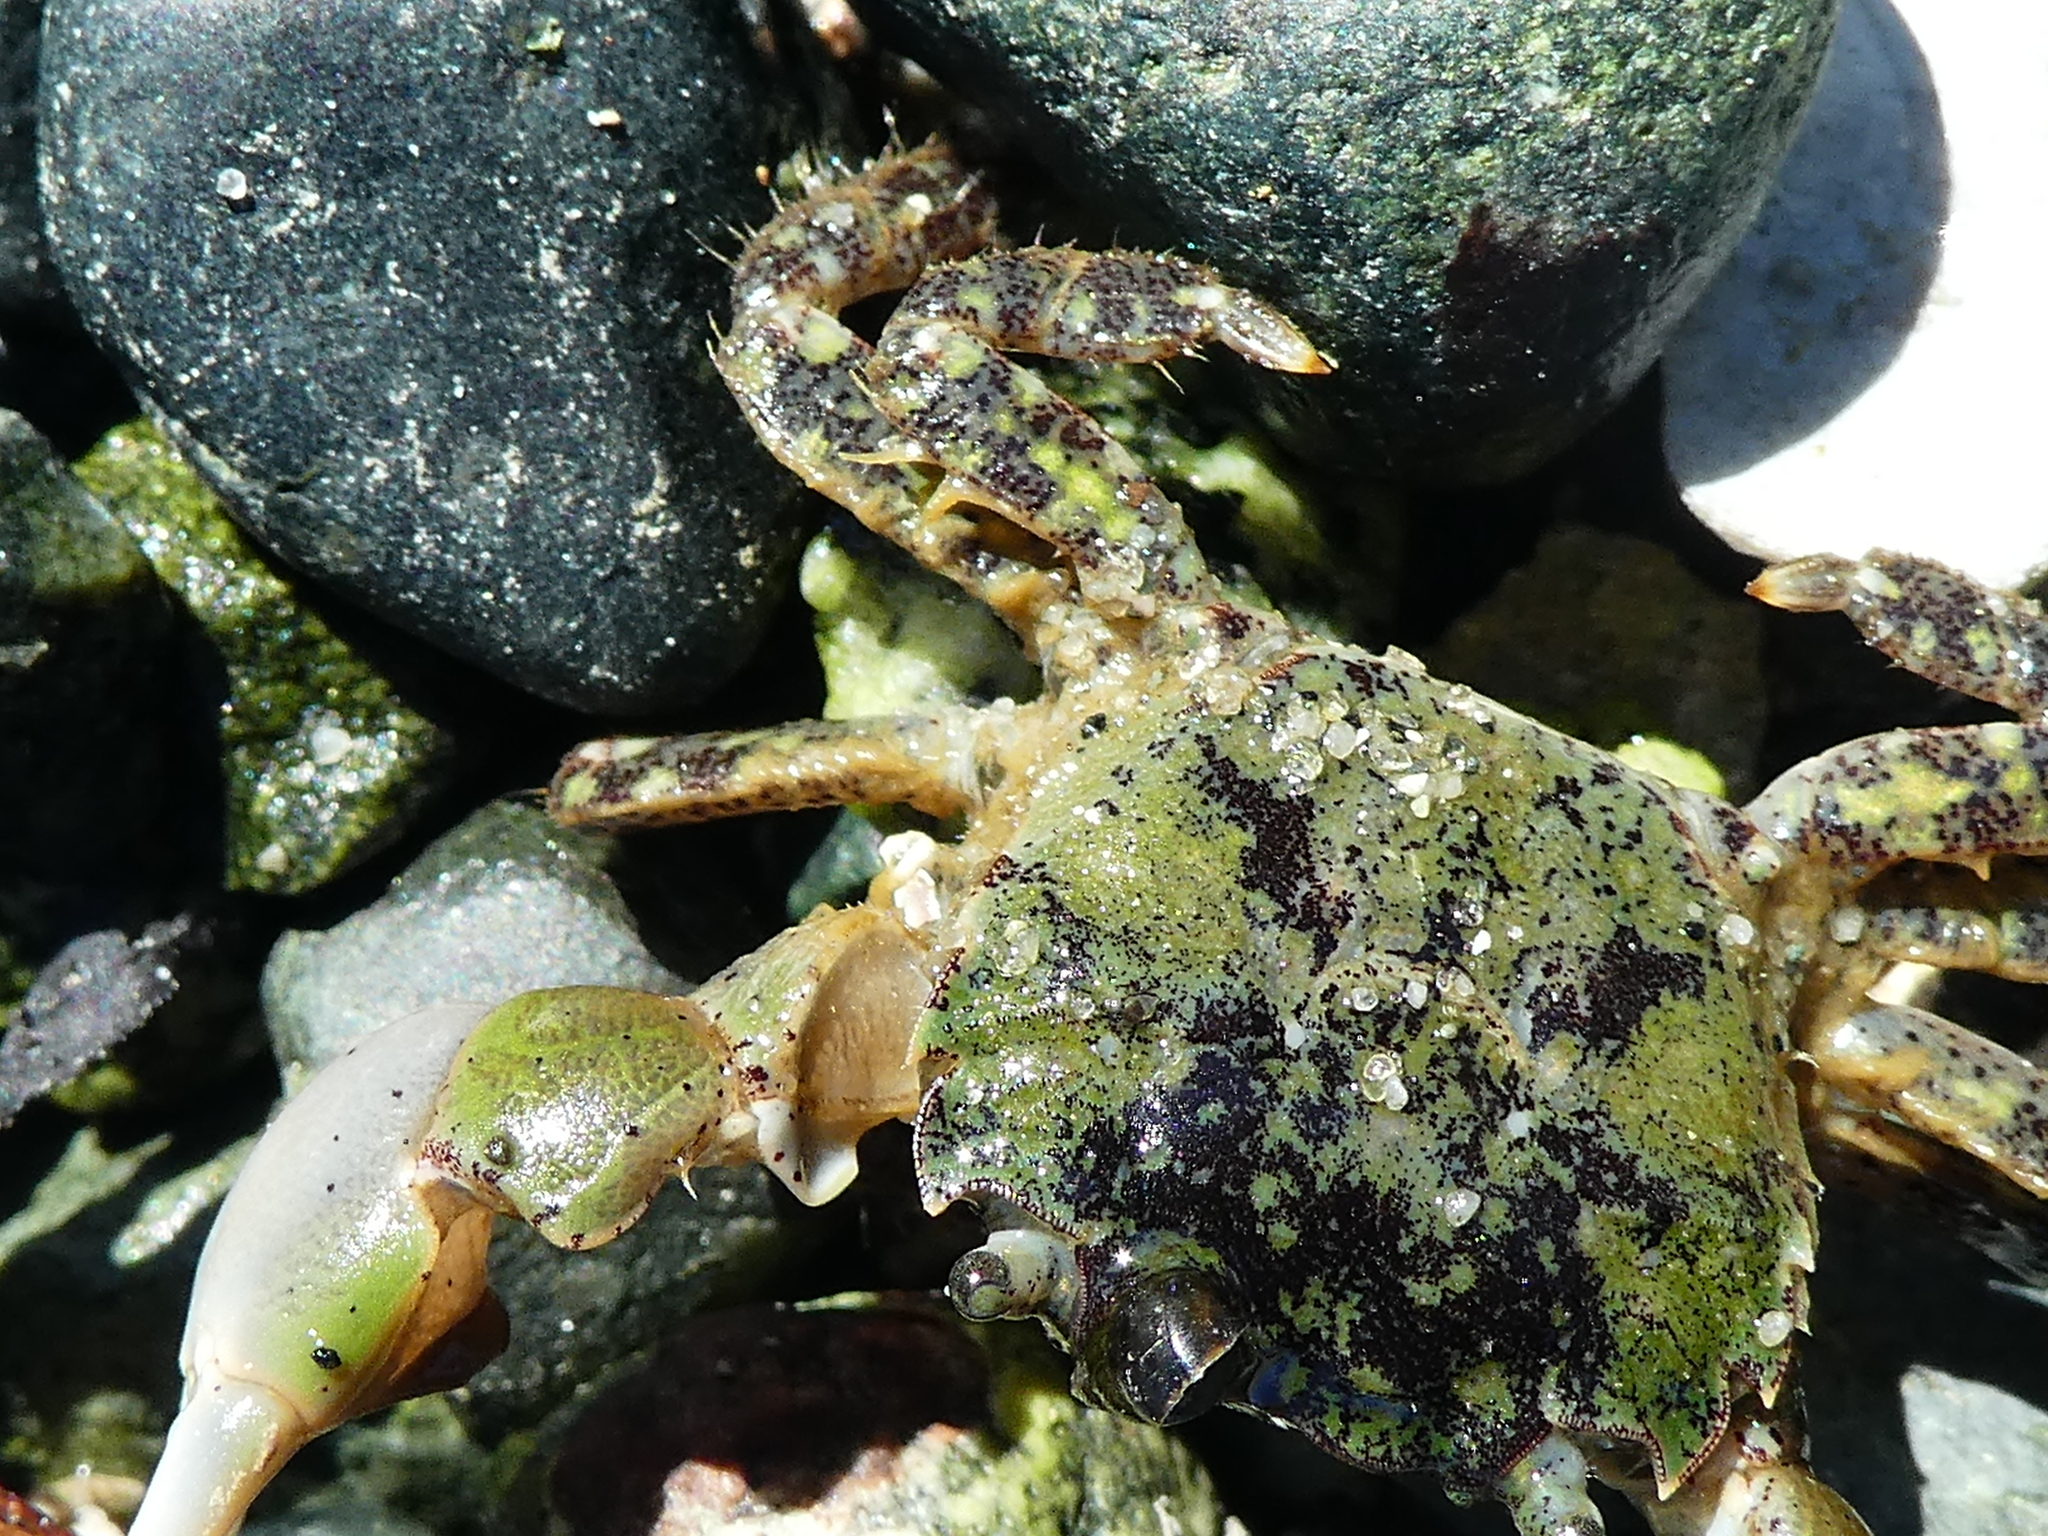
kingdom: Animalia
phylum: Arthropoda
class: Malacostraca
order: Decapoda
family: Varunidae
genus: Hemigrapsus
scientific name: Hemigrapsus oregonensis
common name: Yellow shore crab
